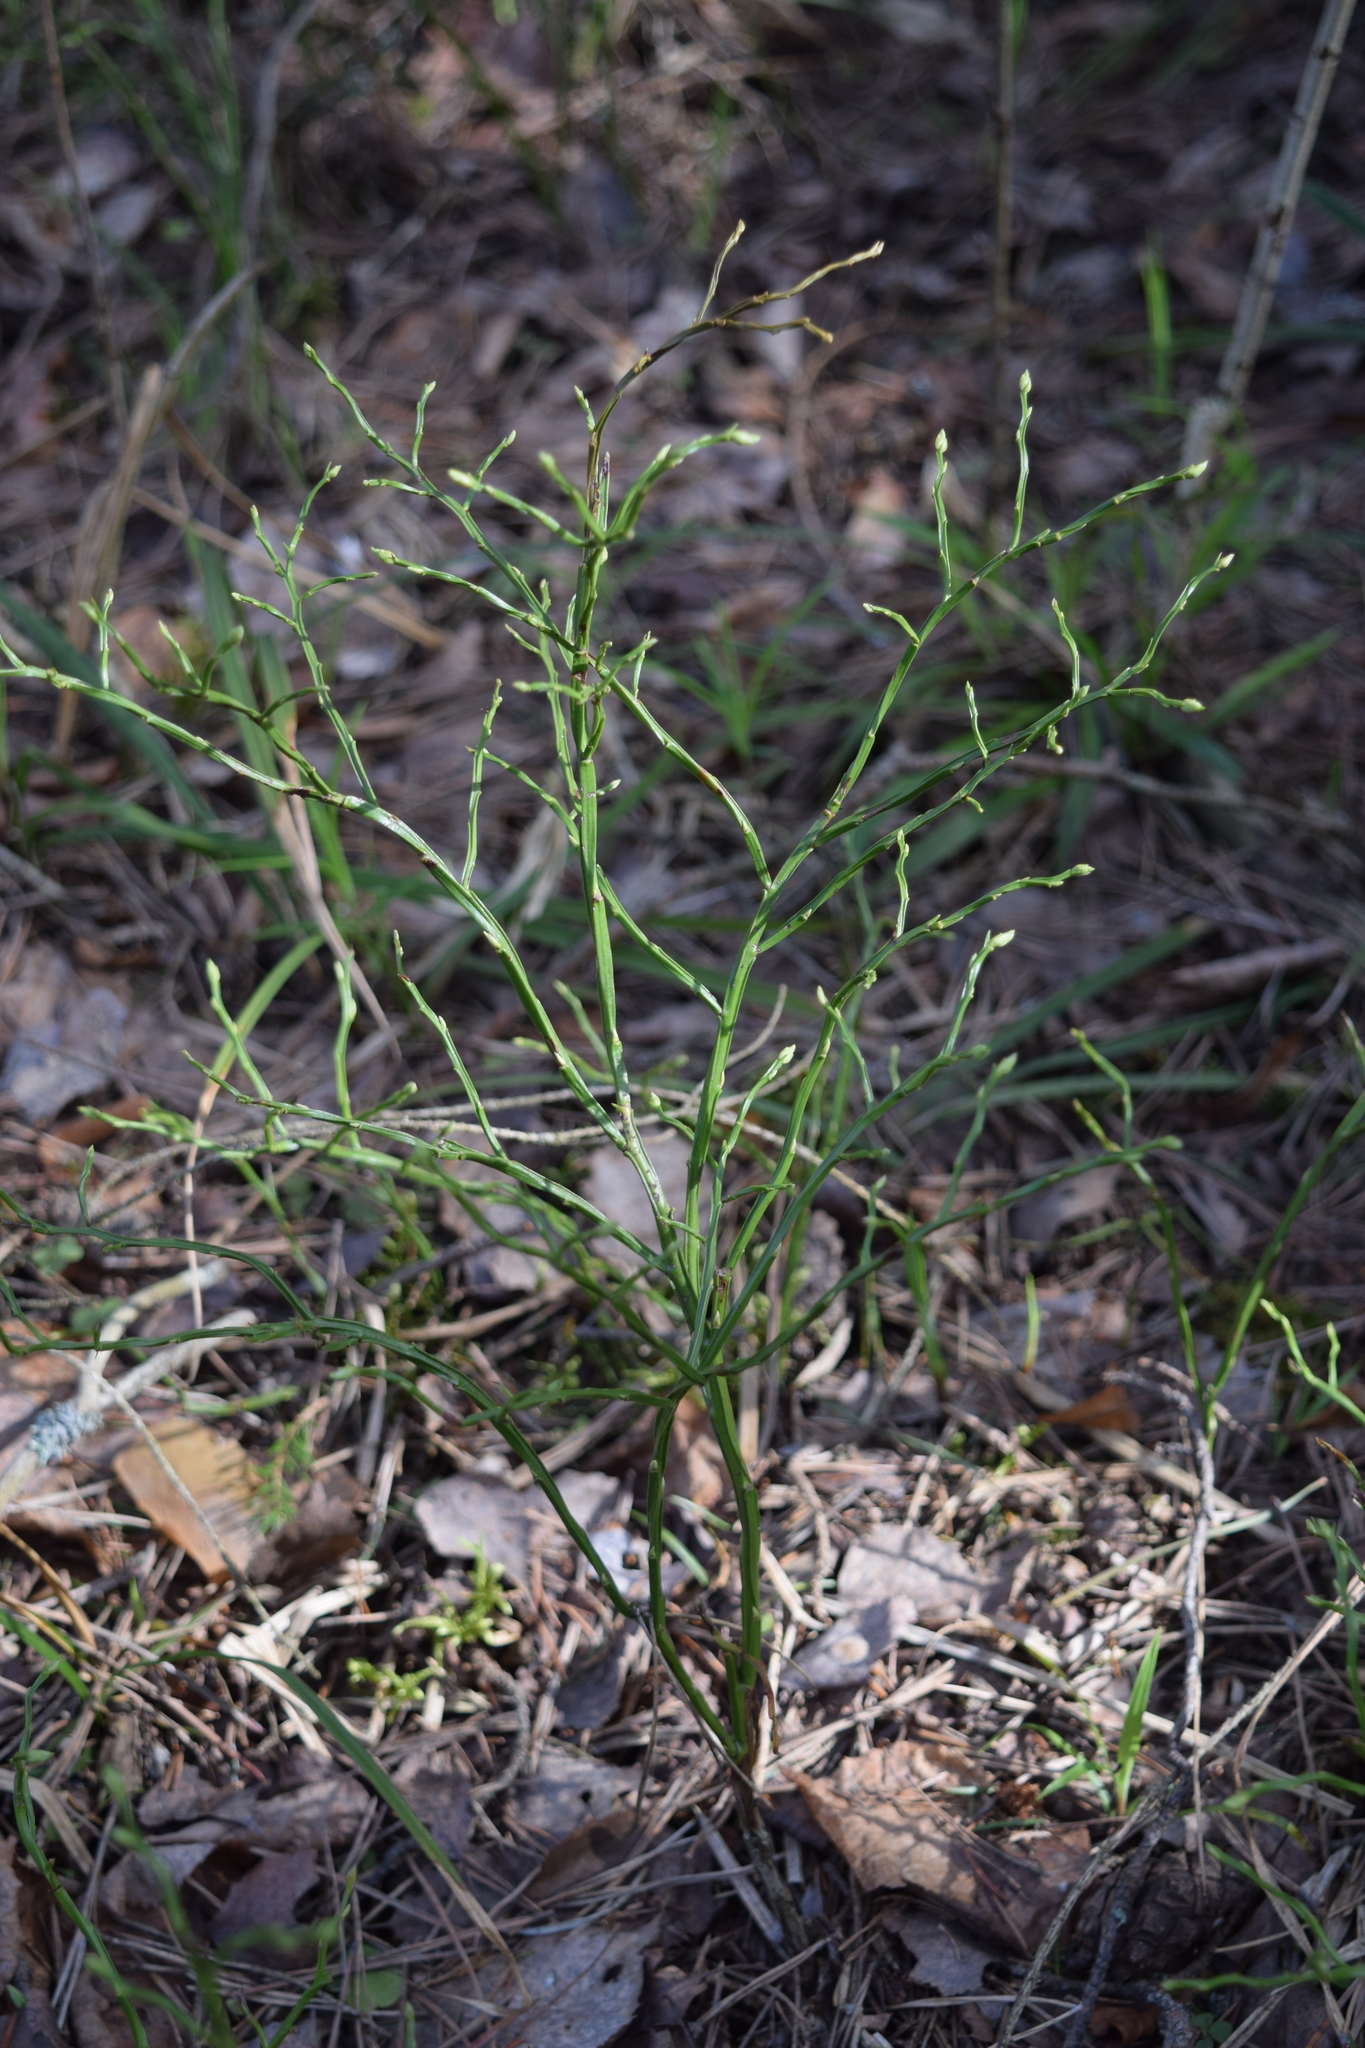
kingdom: Plantae
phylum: Tracheophyta
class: Magnoliopsida
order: Ericales
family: Ericaceae
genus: Vaccinium
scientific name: Vaccinium myrtillus
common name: Bilberry
